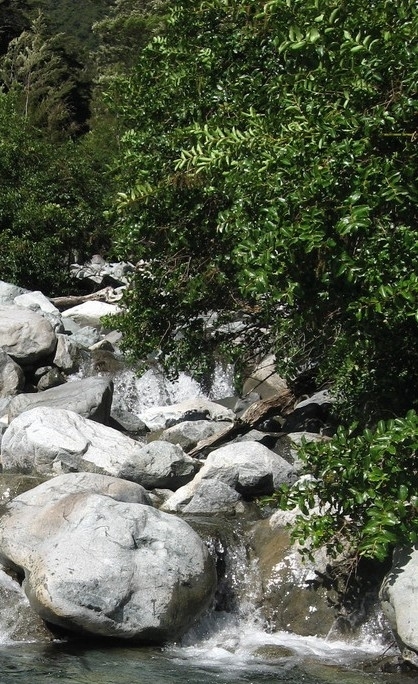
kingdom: Plantae
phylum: Tracheophyta
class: Magnoliopsida
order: Cucurbitales
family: Coriariaceae
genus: Coriaria
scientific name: Coriaria arborea
